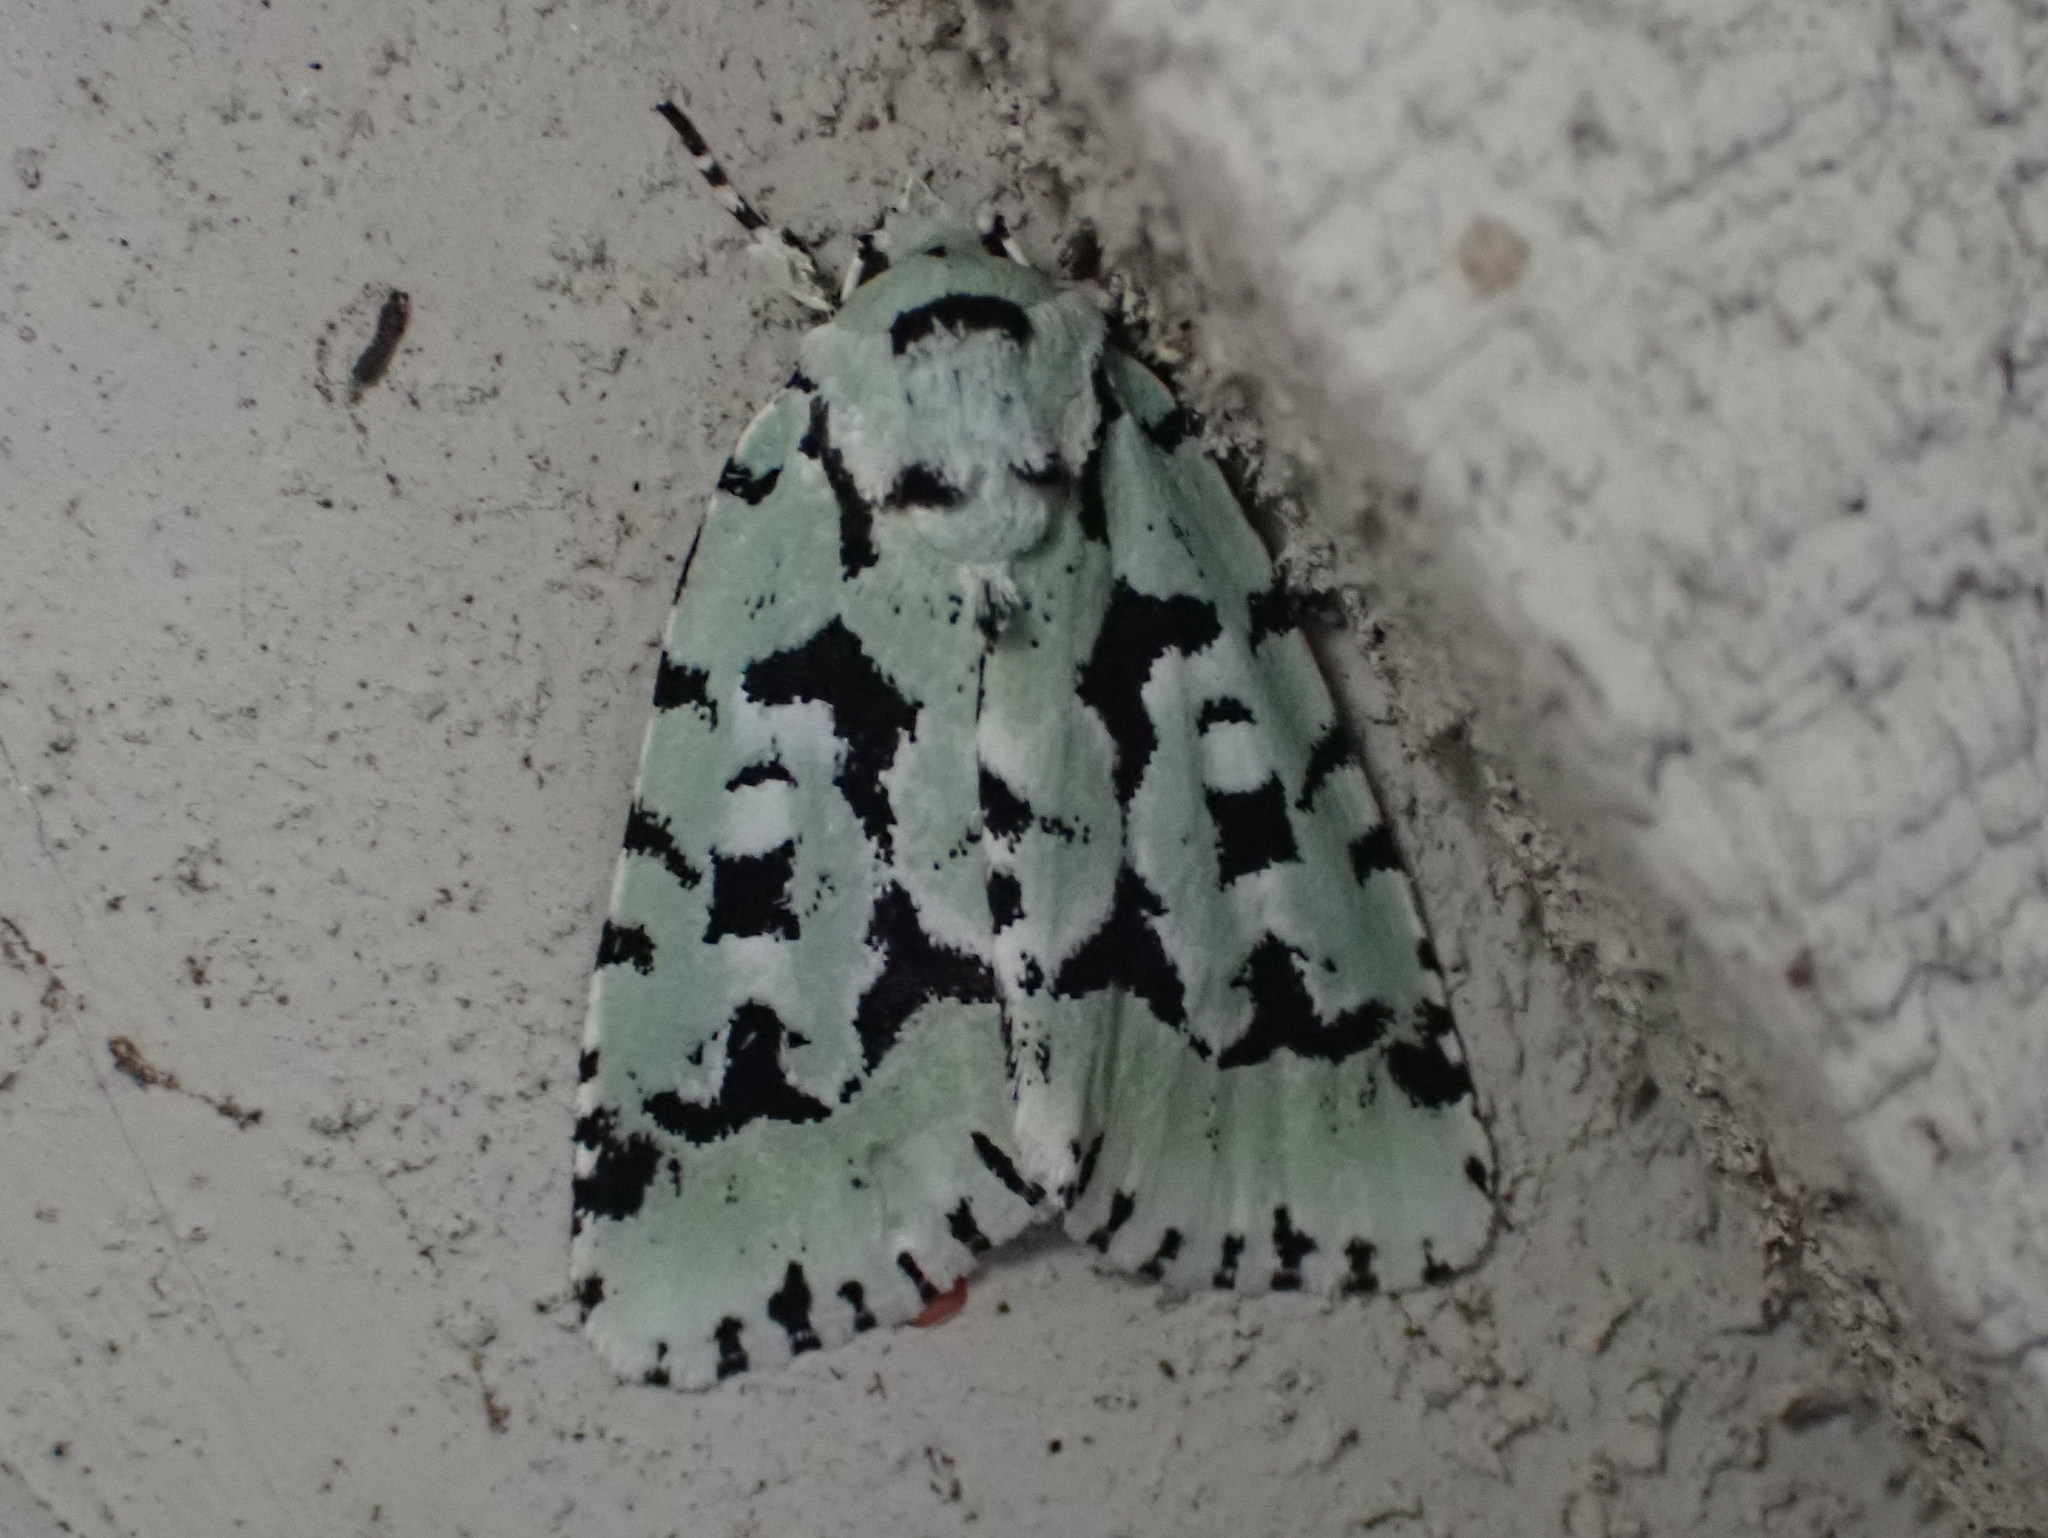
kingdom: Animalia
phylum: Arthropoda
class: Insecta
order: Lepidoptera
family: Noctuidae
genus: Acronicta
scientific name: Acronicta fallax
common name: Green marvel
